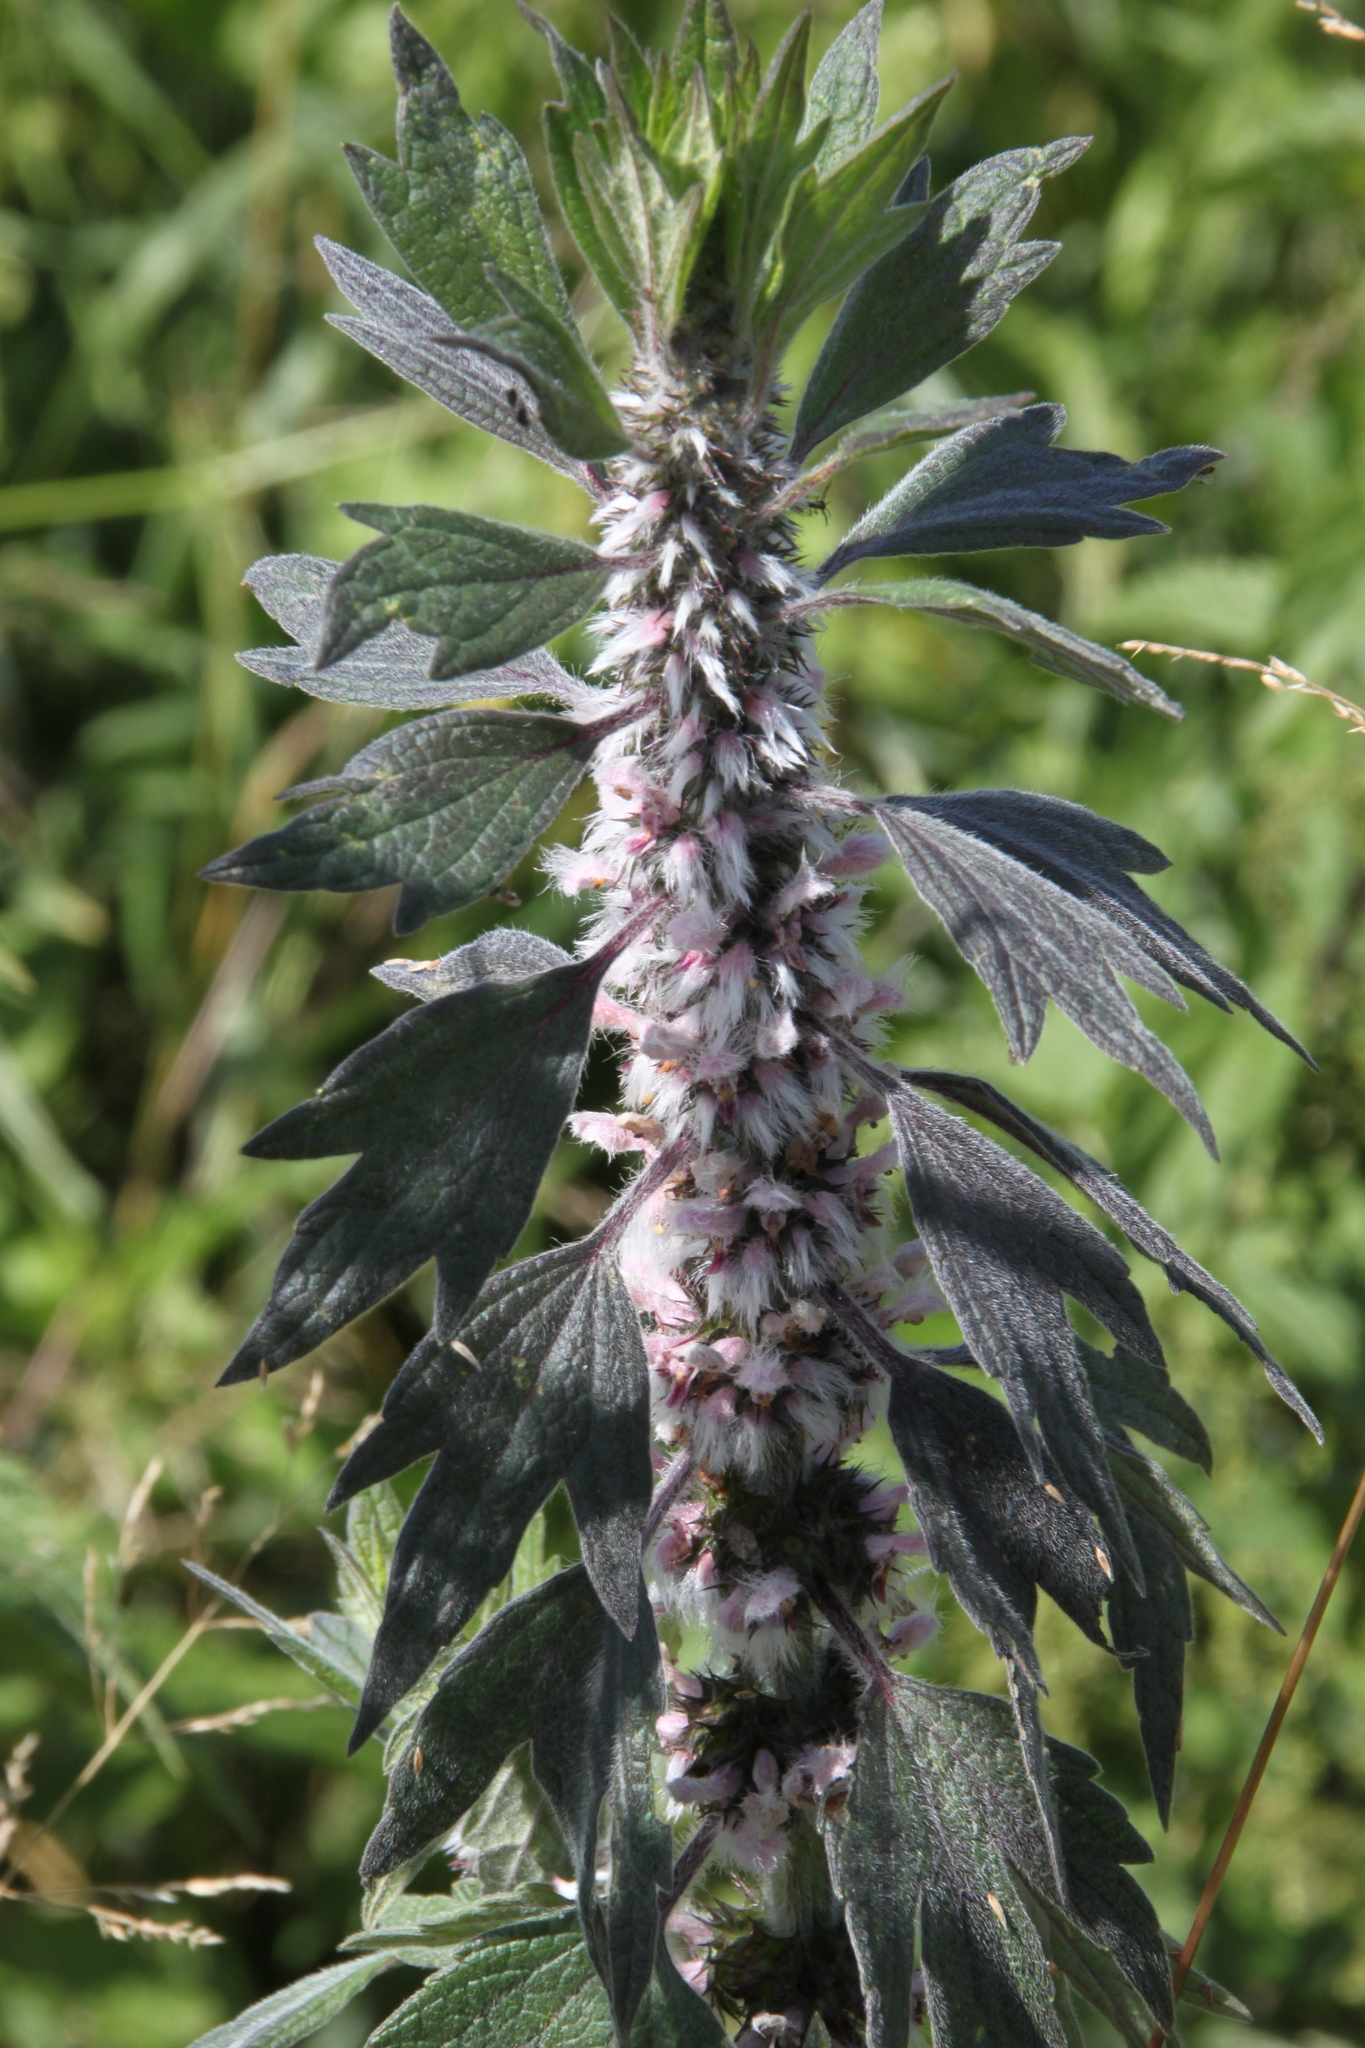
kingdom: Plantae
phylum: Tracheophyta
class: Magnoliopsida
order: Lamiales
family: Lamiaceae
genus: Leonurus
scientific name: Leonurus quinquelobatus
